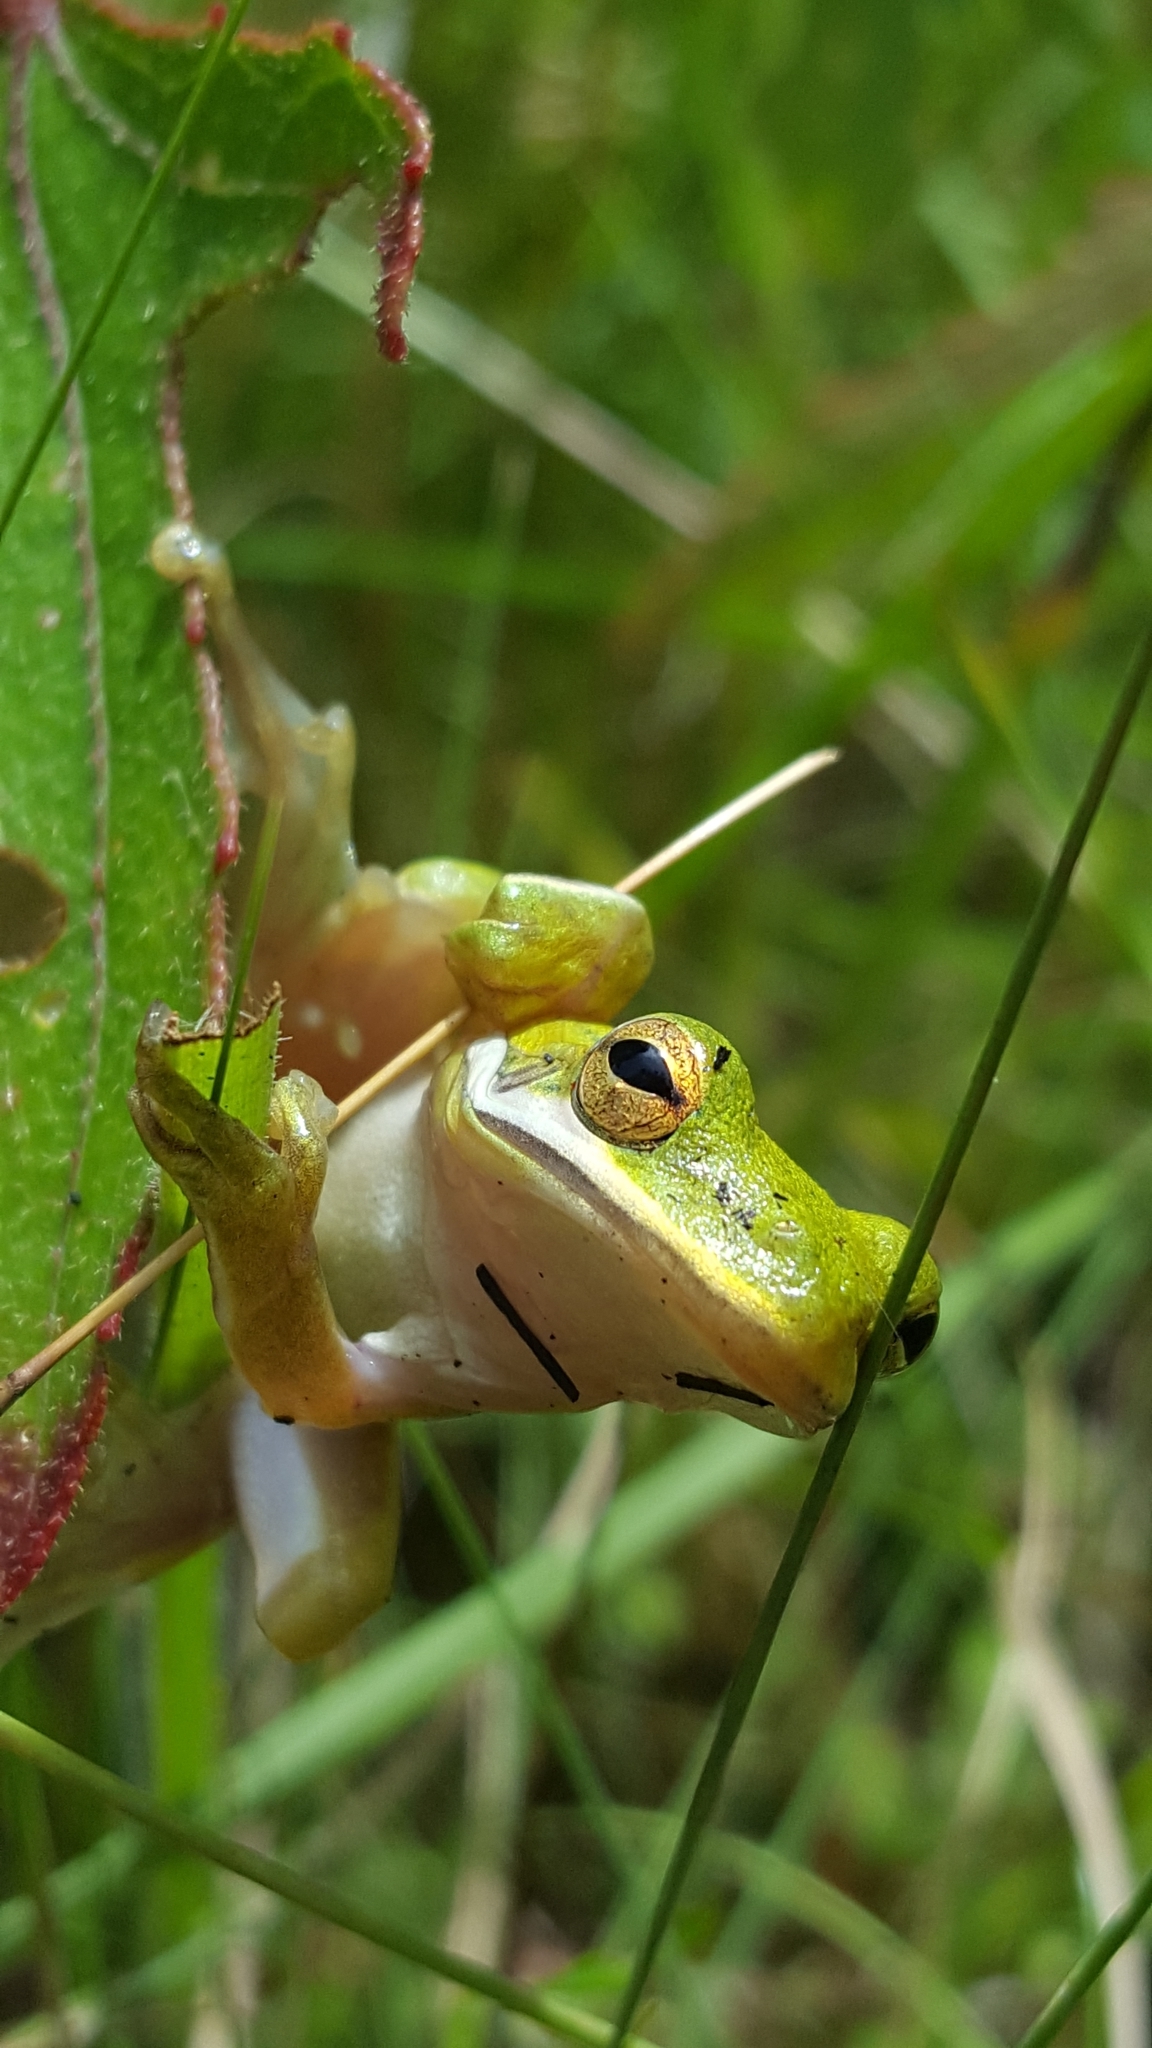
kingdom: Animalia
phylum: Chordata
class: Amphibia
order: Anura
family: Hylidae
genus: Dryophytes
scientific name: Dryophytes cinereus
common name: Green treefrog
